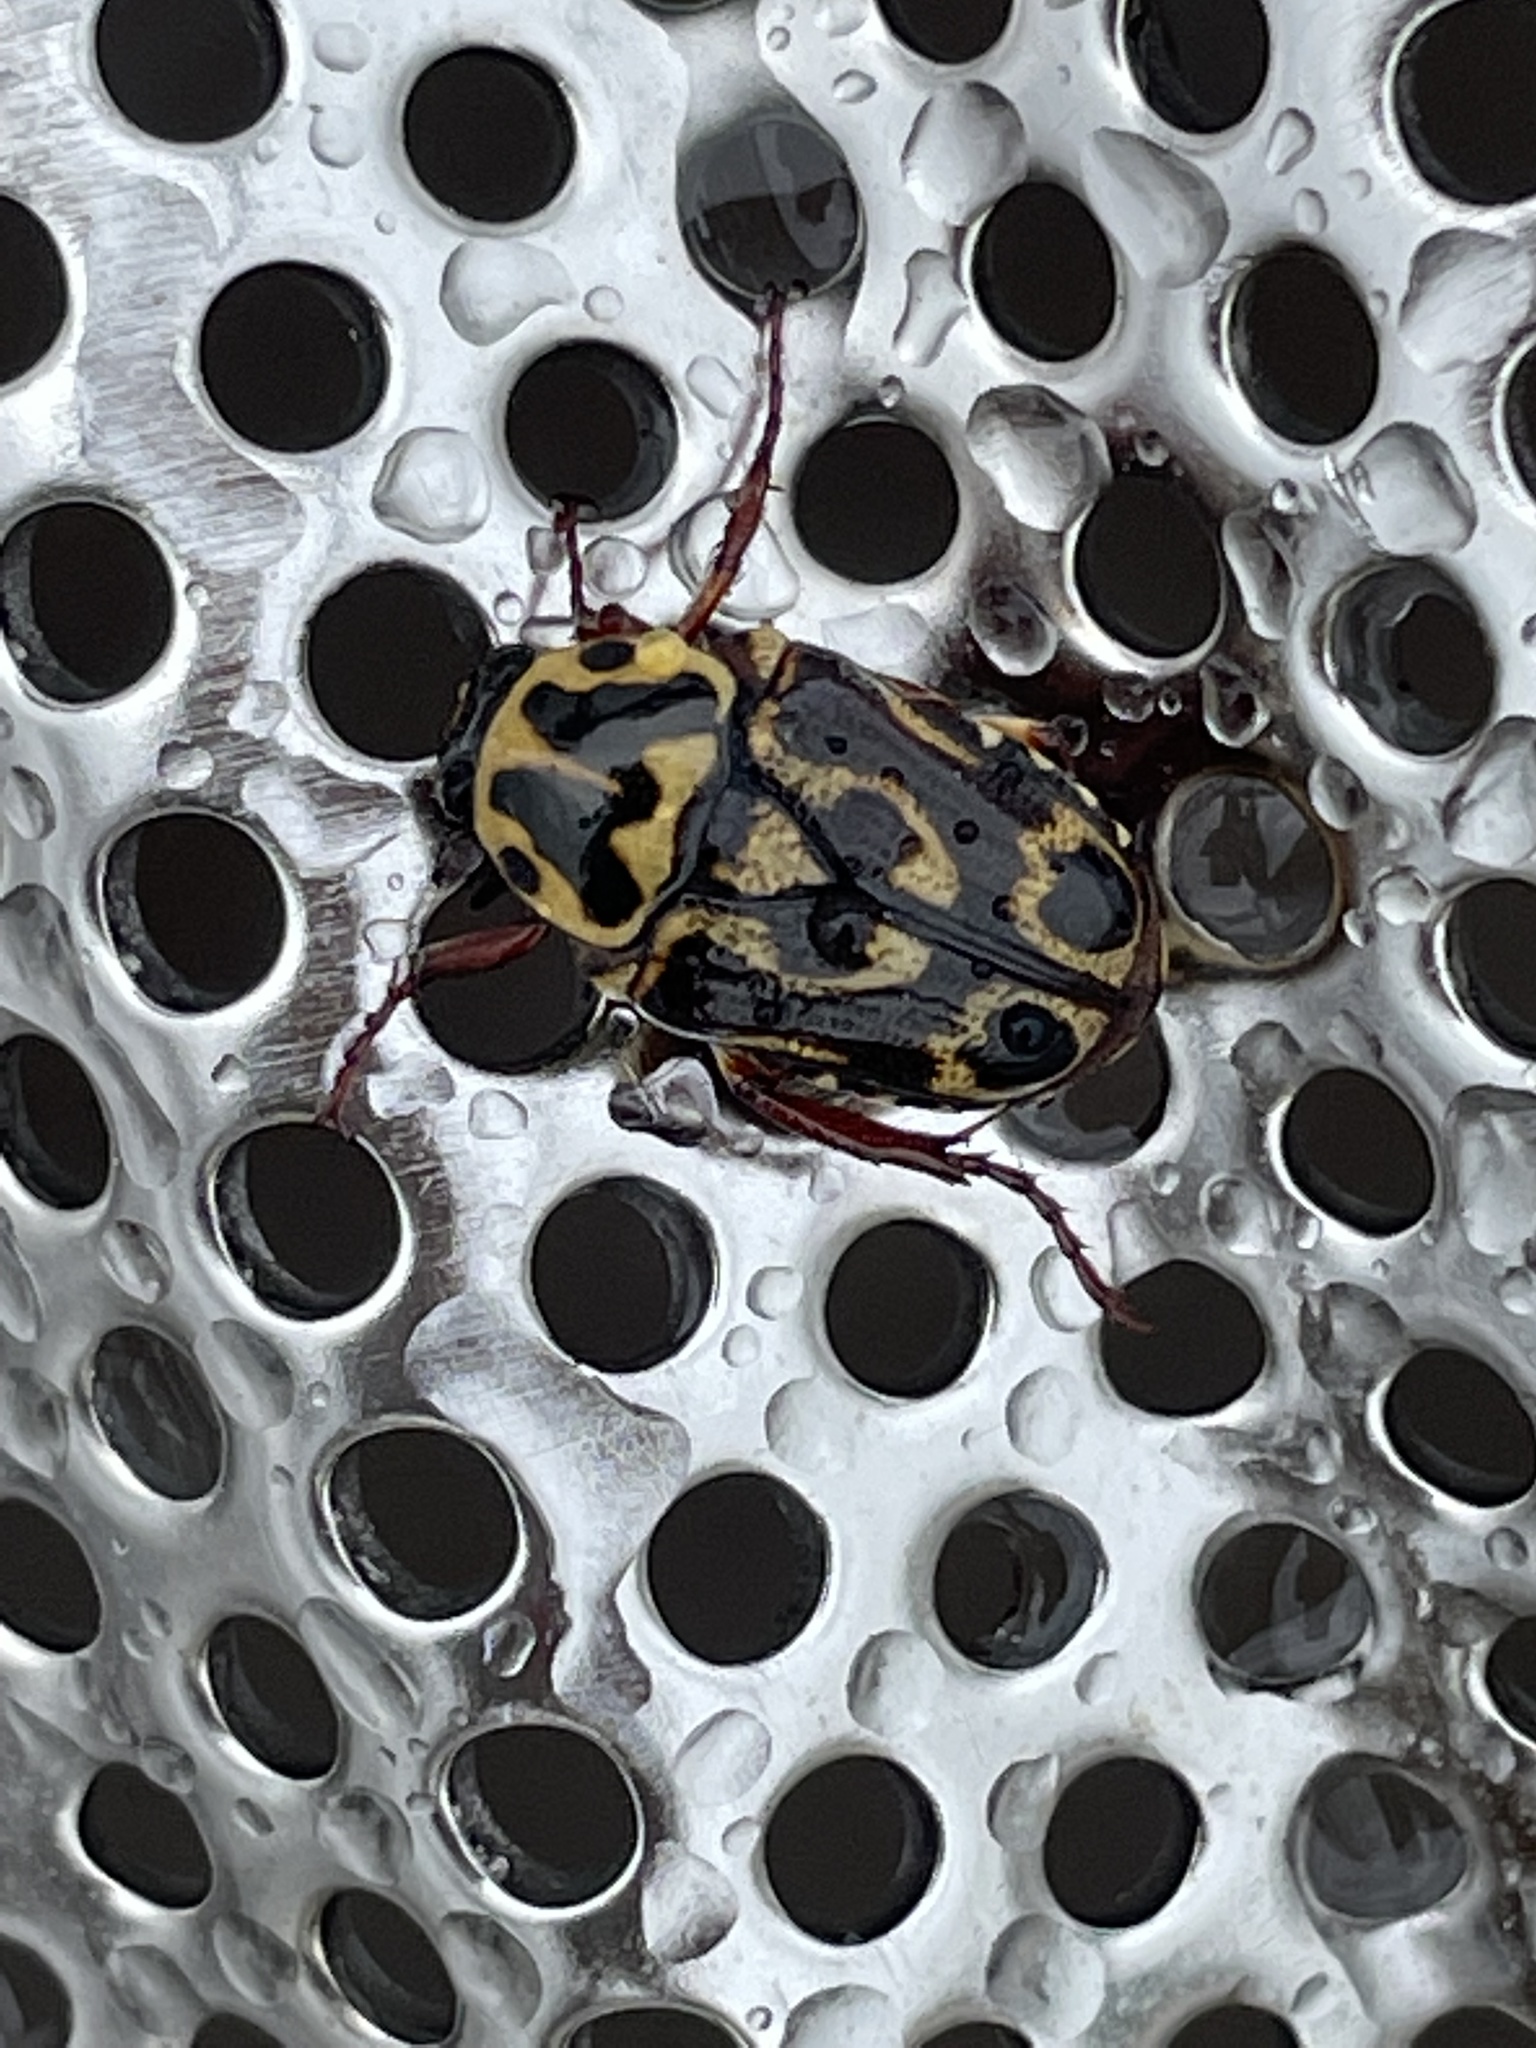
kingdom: Animalia
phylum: Arthropoda
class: Insecta
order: Coleoptera
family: Scarabaeidae
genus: Lyraphora
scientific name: Lyraphora obliquata
